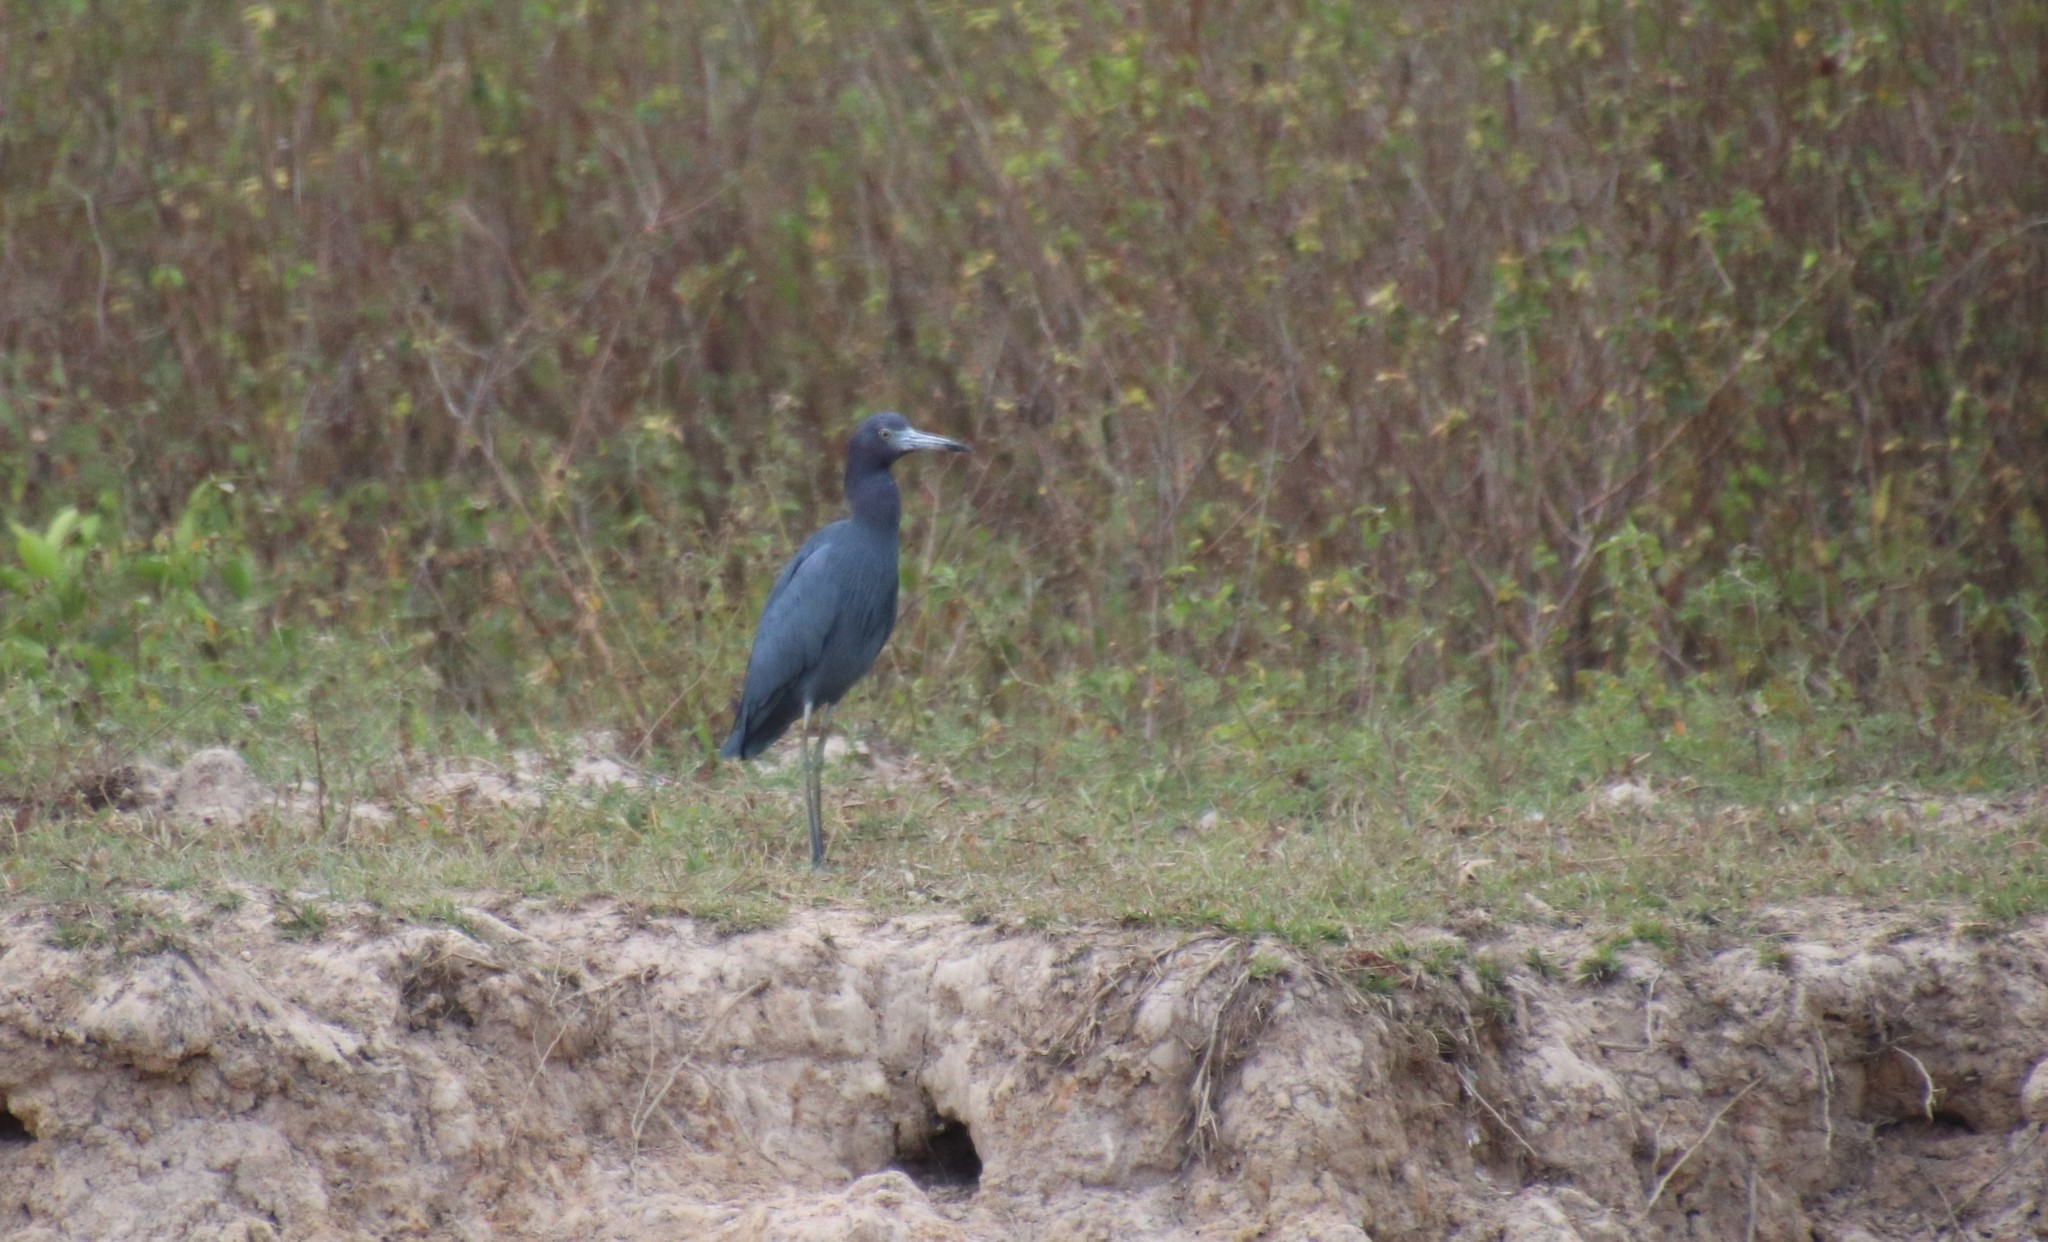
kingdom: Animalia
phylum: Chordata
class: Aves
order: Pelecaniformes
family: Ardeidae
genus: Egretta
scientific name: Egretta caerulea
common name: Little blue heron
